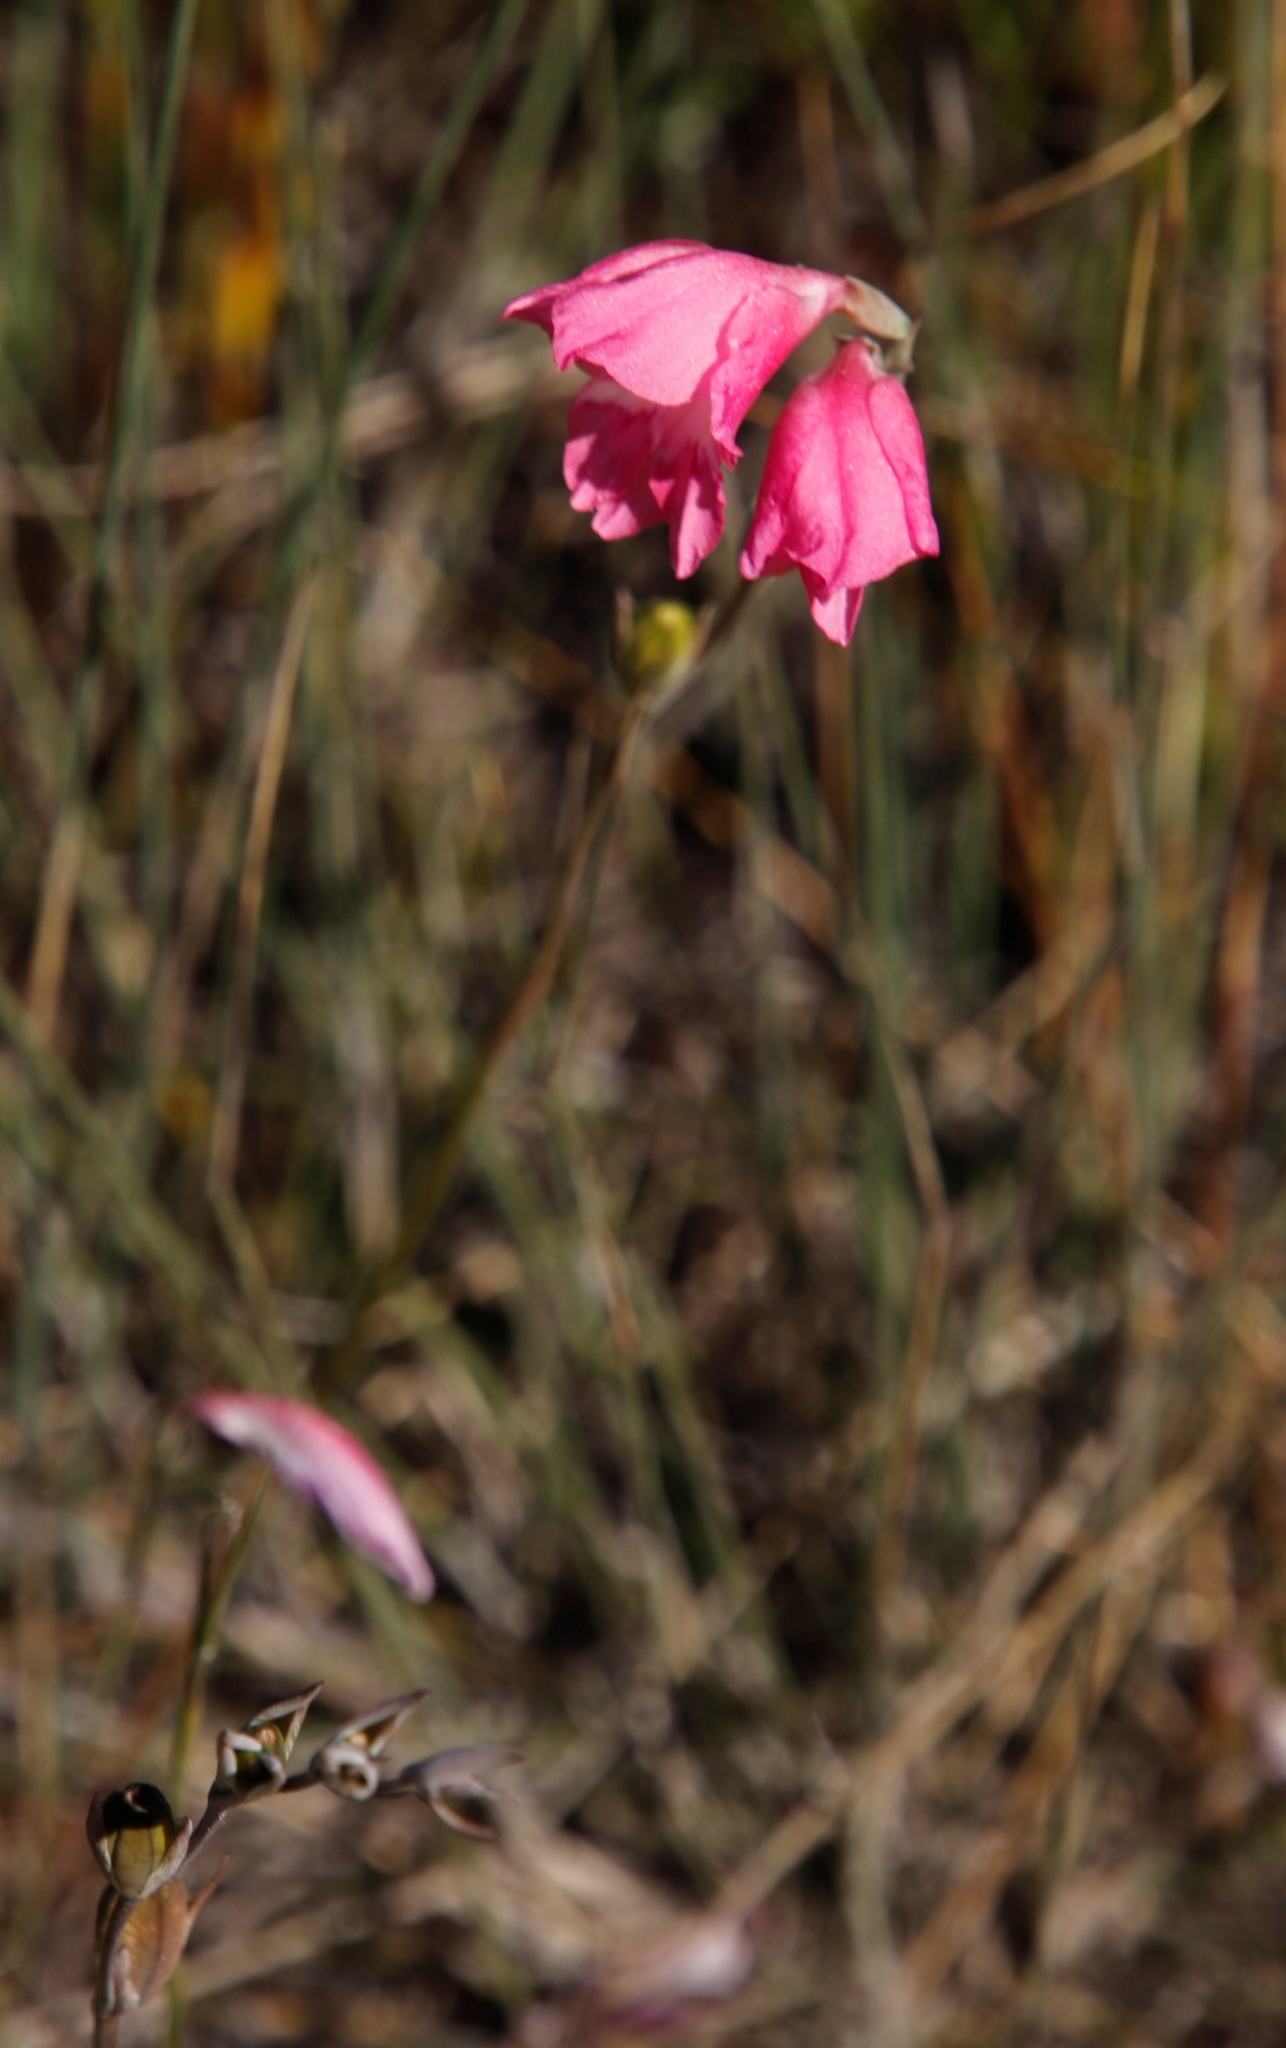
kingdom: Plantae
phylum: Tracheophyta
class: Liliopsida
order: Asparagales
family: Iridaceae
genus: Gladiolus
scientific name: Gladiolus brevifolius
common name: March pypie
